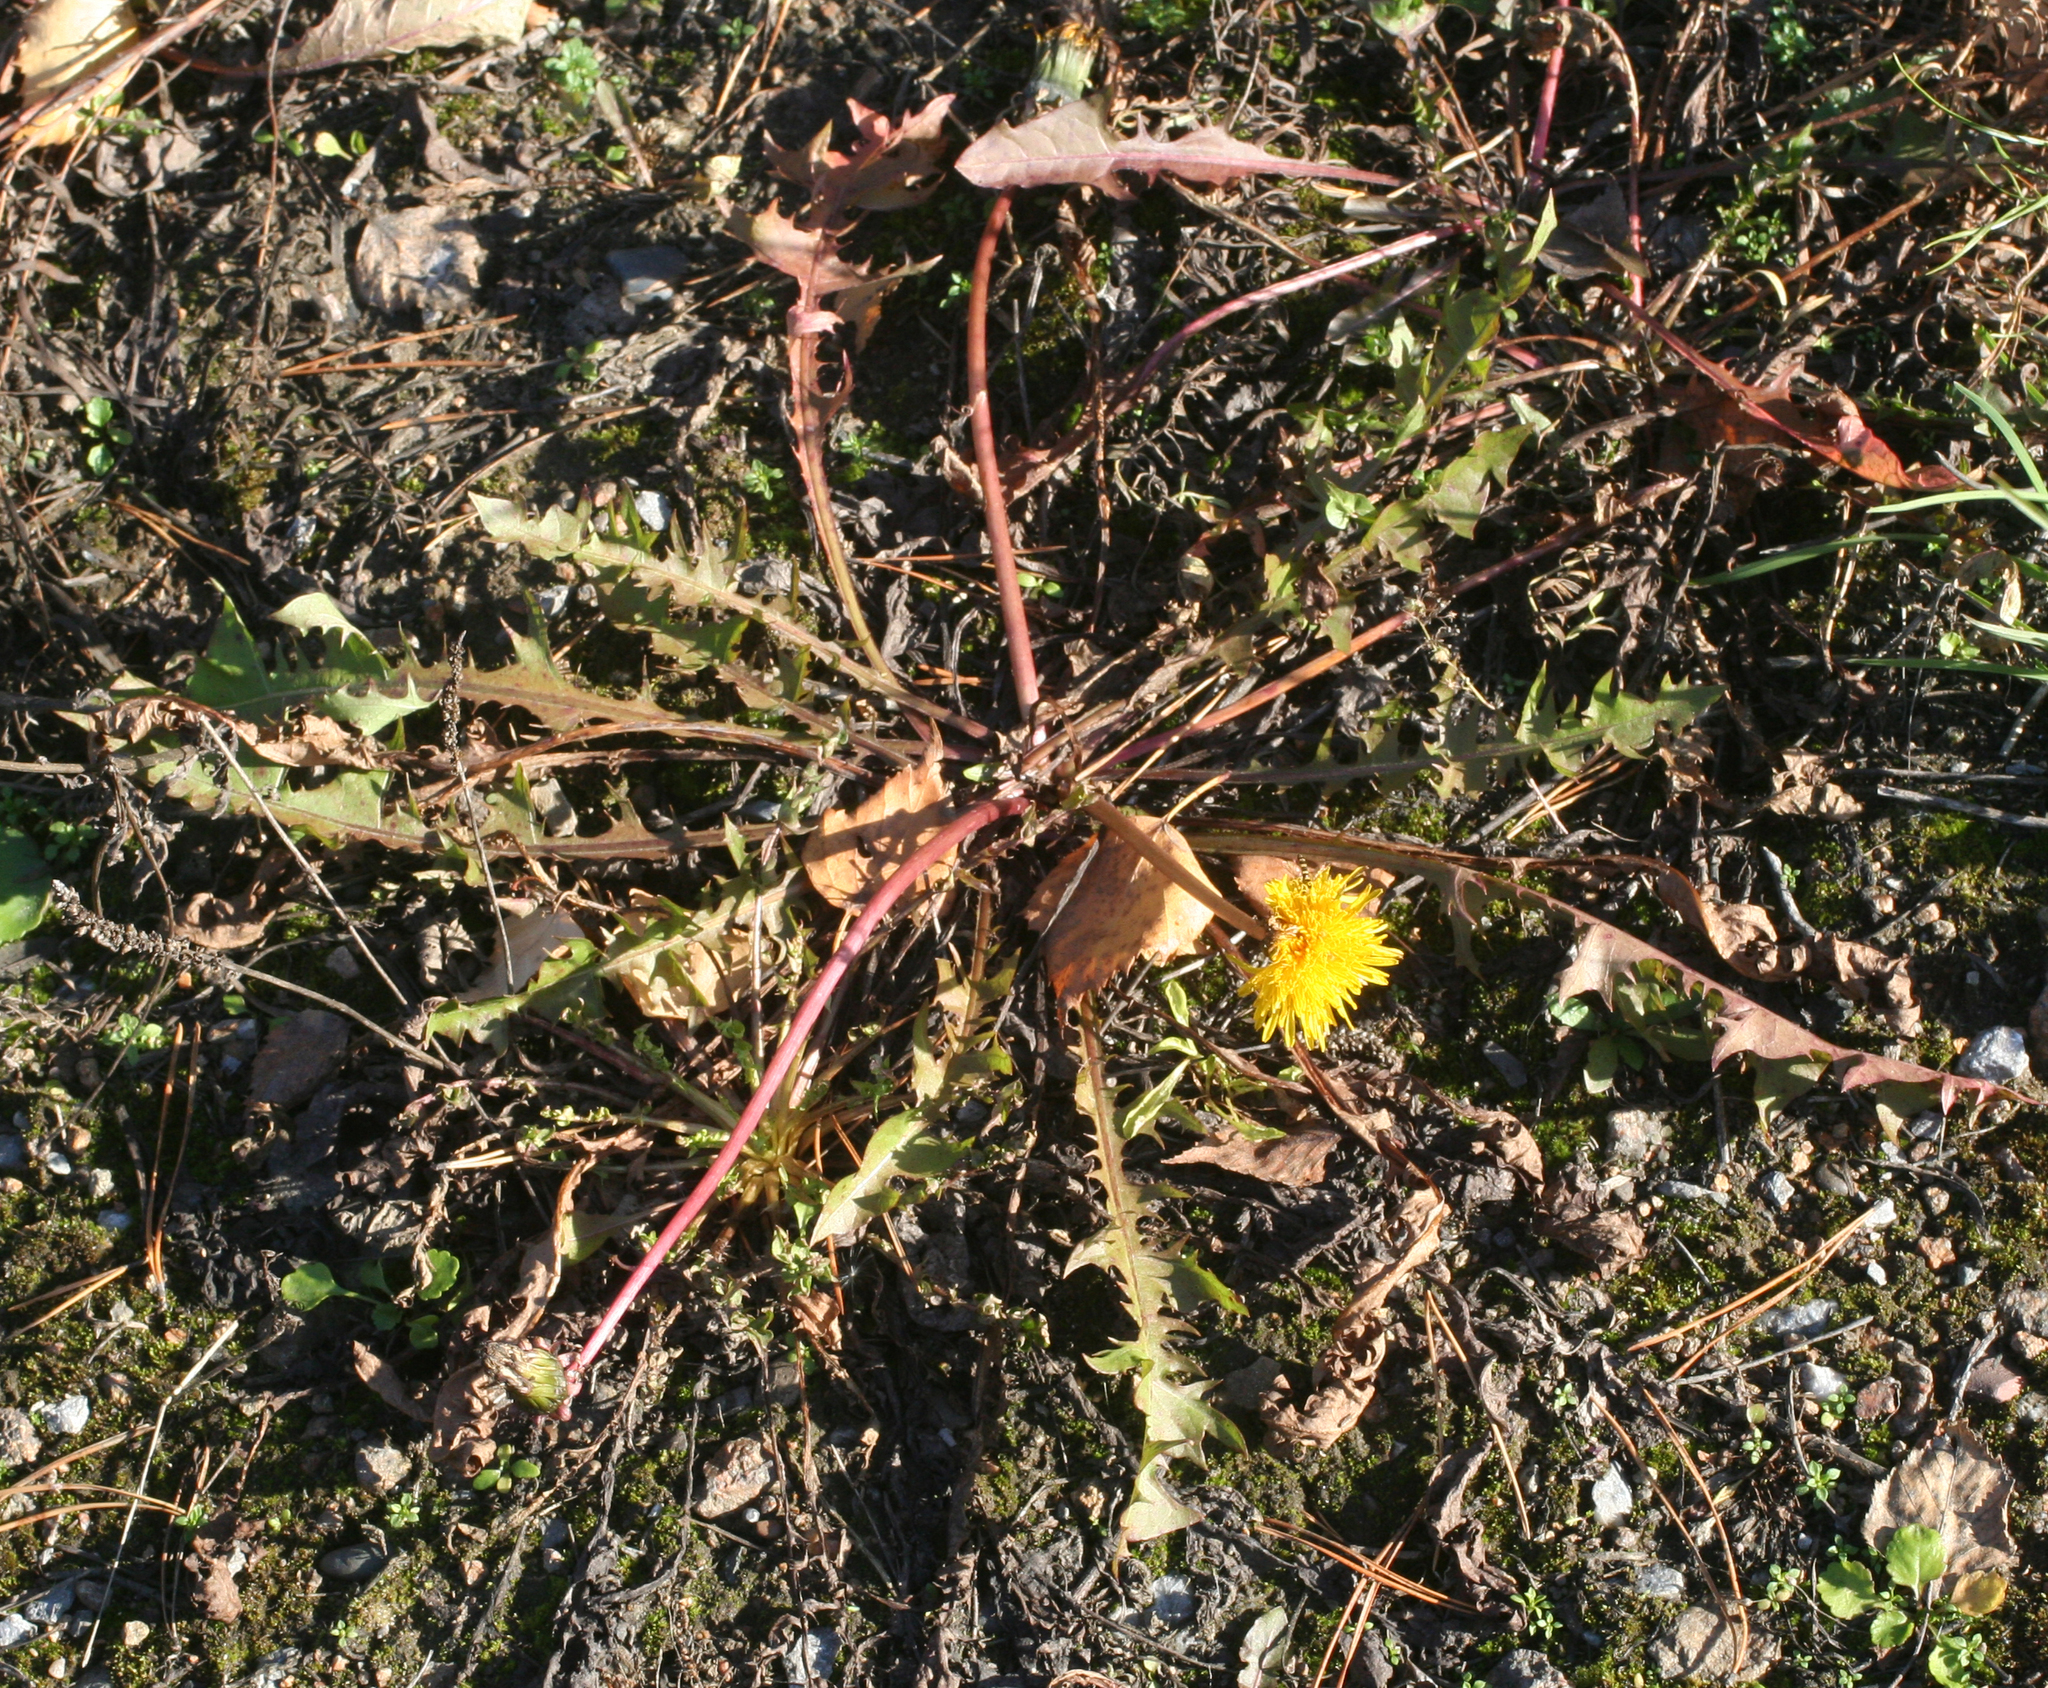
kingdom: Plantae
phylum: Tracheophyta
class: Magnoliopsida
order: Asterales
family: Asteraceae
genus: Taraxacum
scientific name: Taraxacum officinale
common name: Common dandelion
